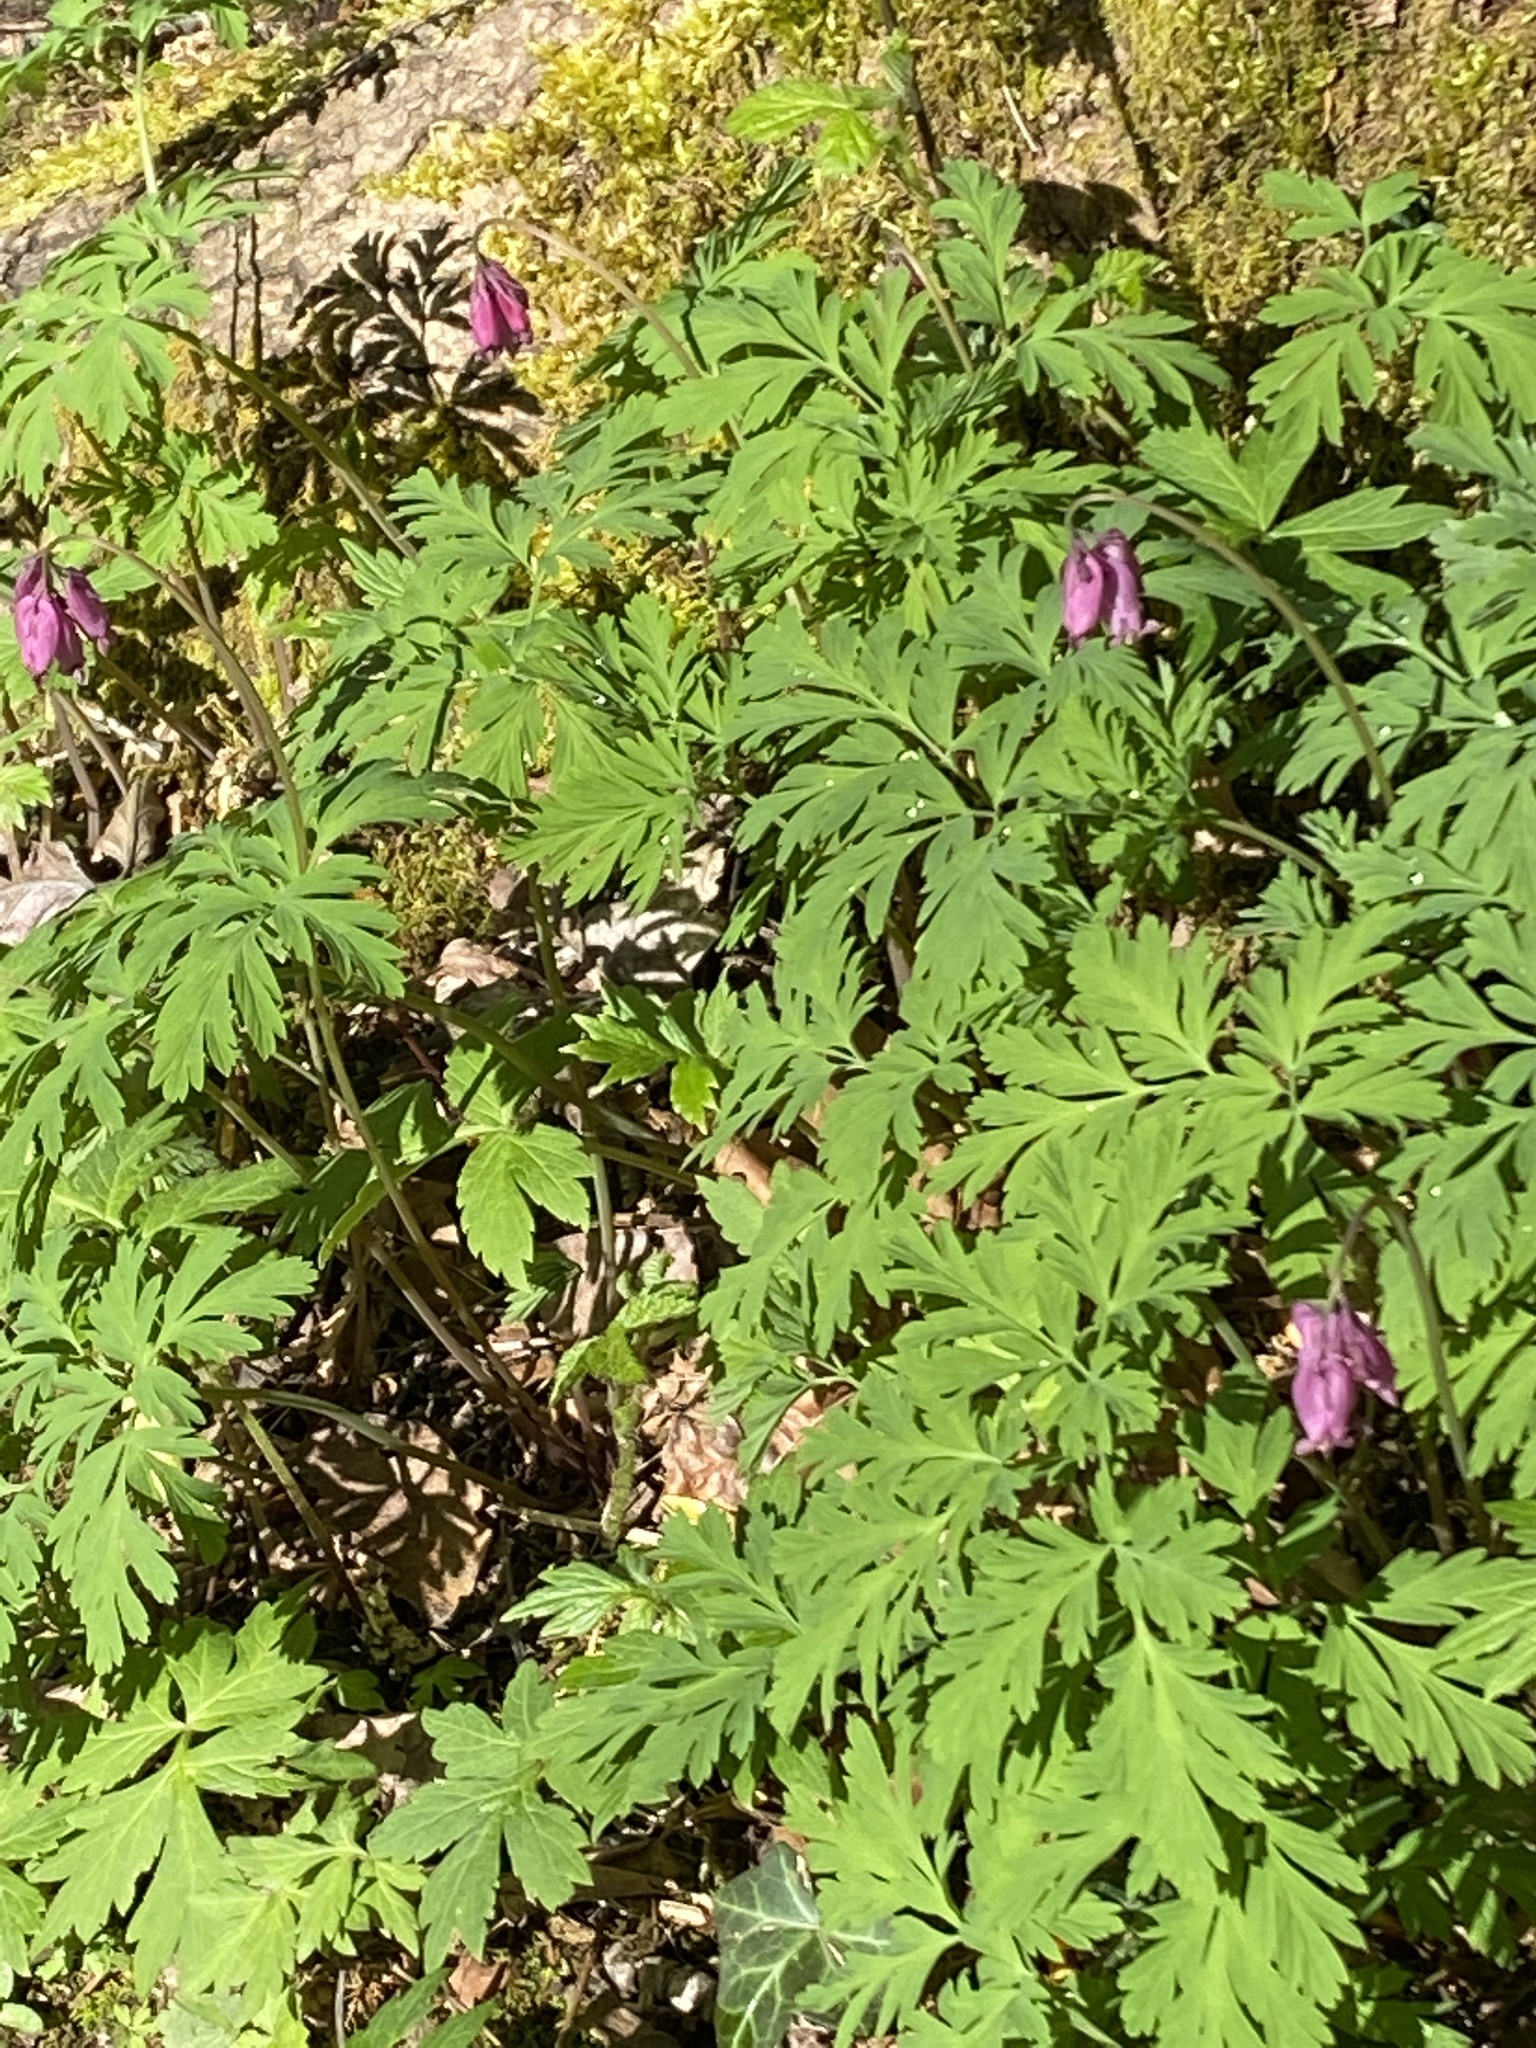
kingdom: Plantae
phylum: Tracheophyta
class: Magnoliopsida
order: Ranunculales
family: Papaveraceae
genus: Dicentra
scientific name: Dicentra formosa
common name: Bleeding-heart
